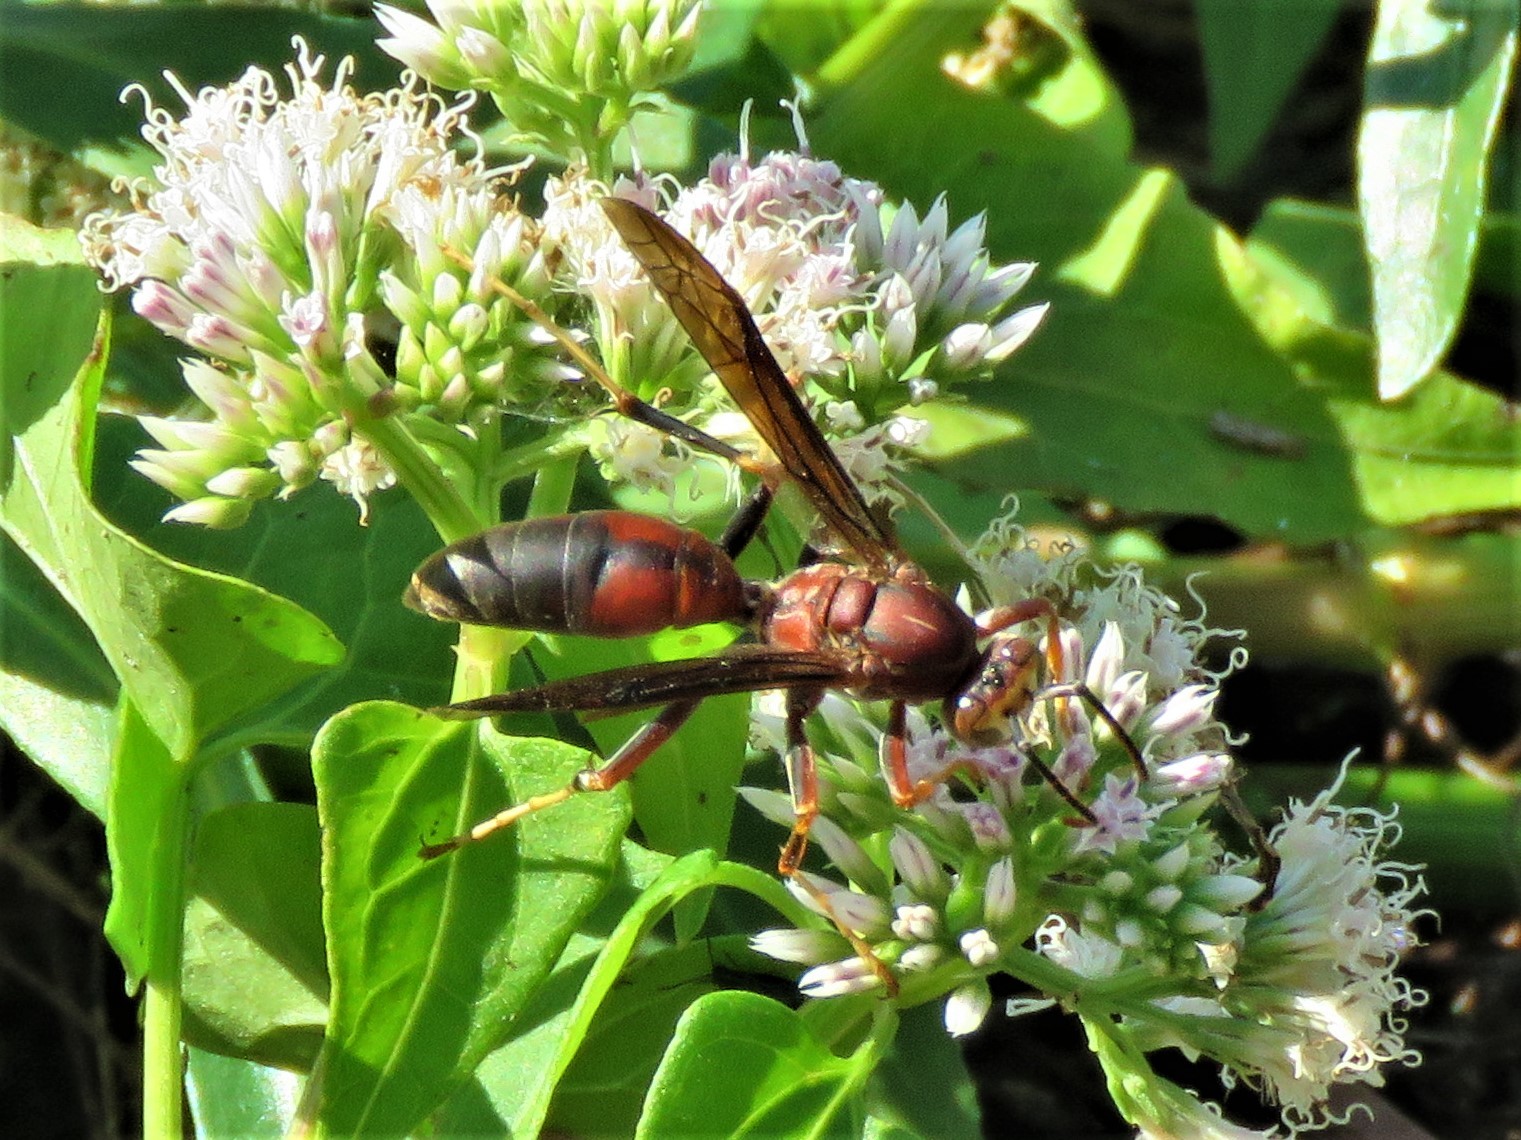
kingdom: Animalia
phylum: Arthropoda
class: Insecta
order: Hymenoptera
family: Eumenidae
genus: Polistes
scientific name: Polistes metricus
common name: Metric paper wasp
